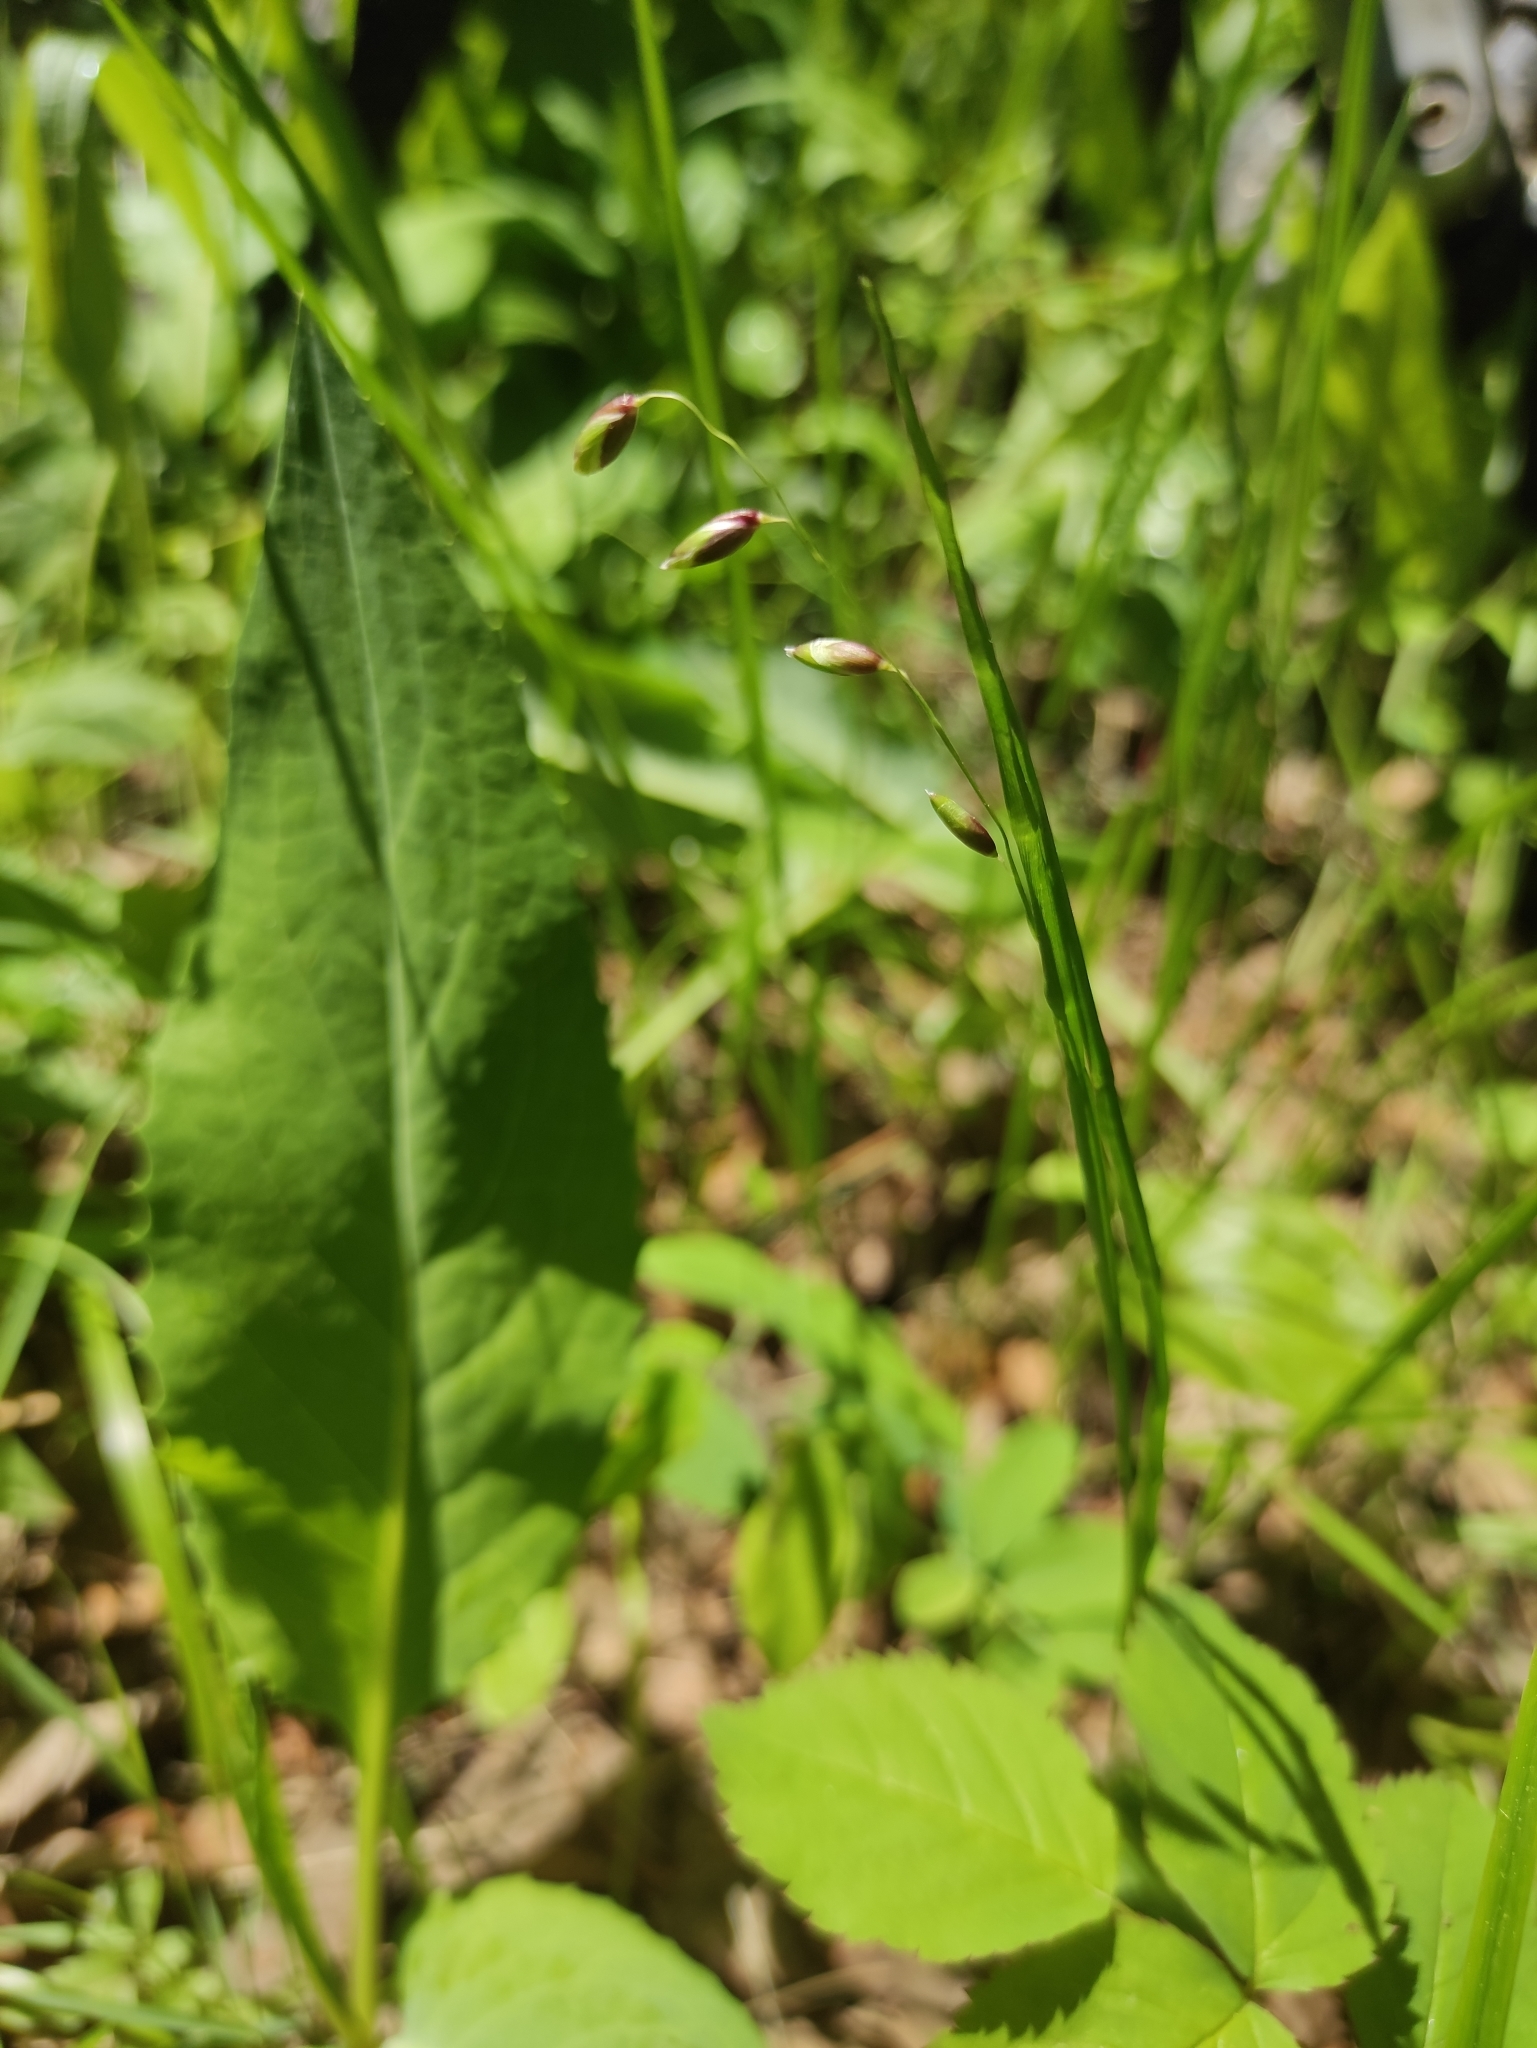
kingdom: Plantae
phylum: Tracheophyta
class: Liliopsida
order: Poales
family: Poaceae
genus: Melica
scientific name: Melica nutans
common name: Mountain melick
